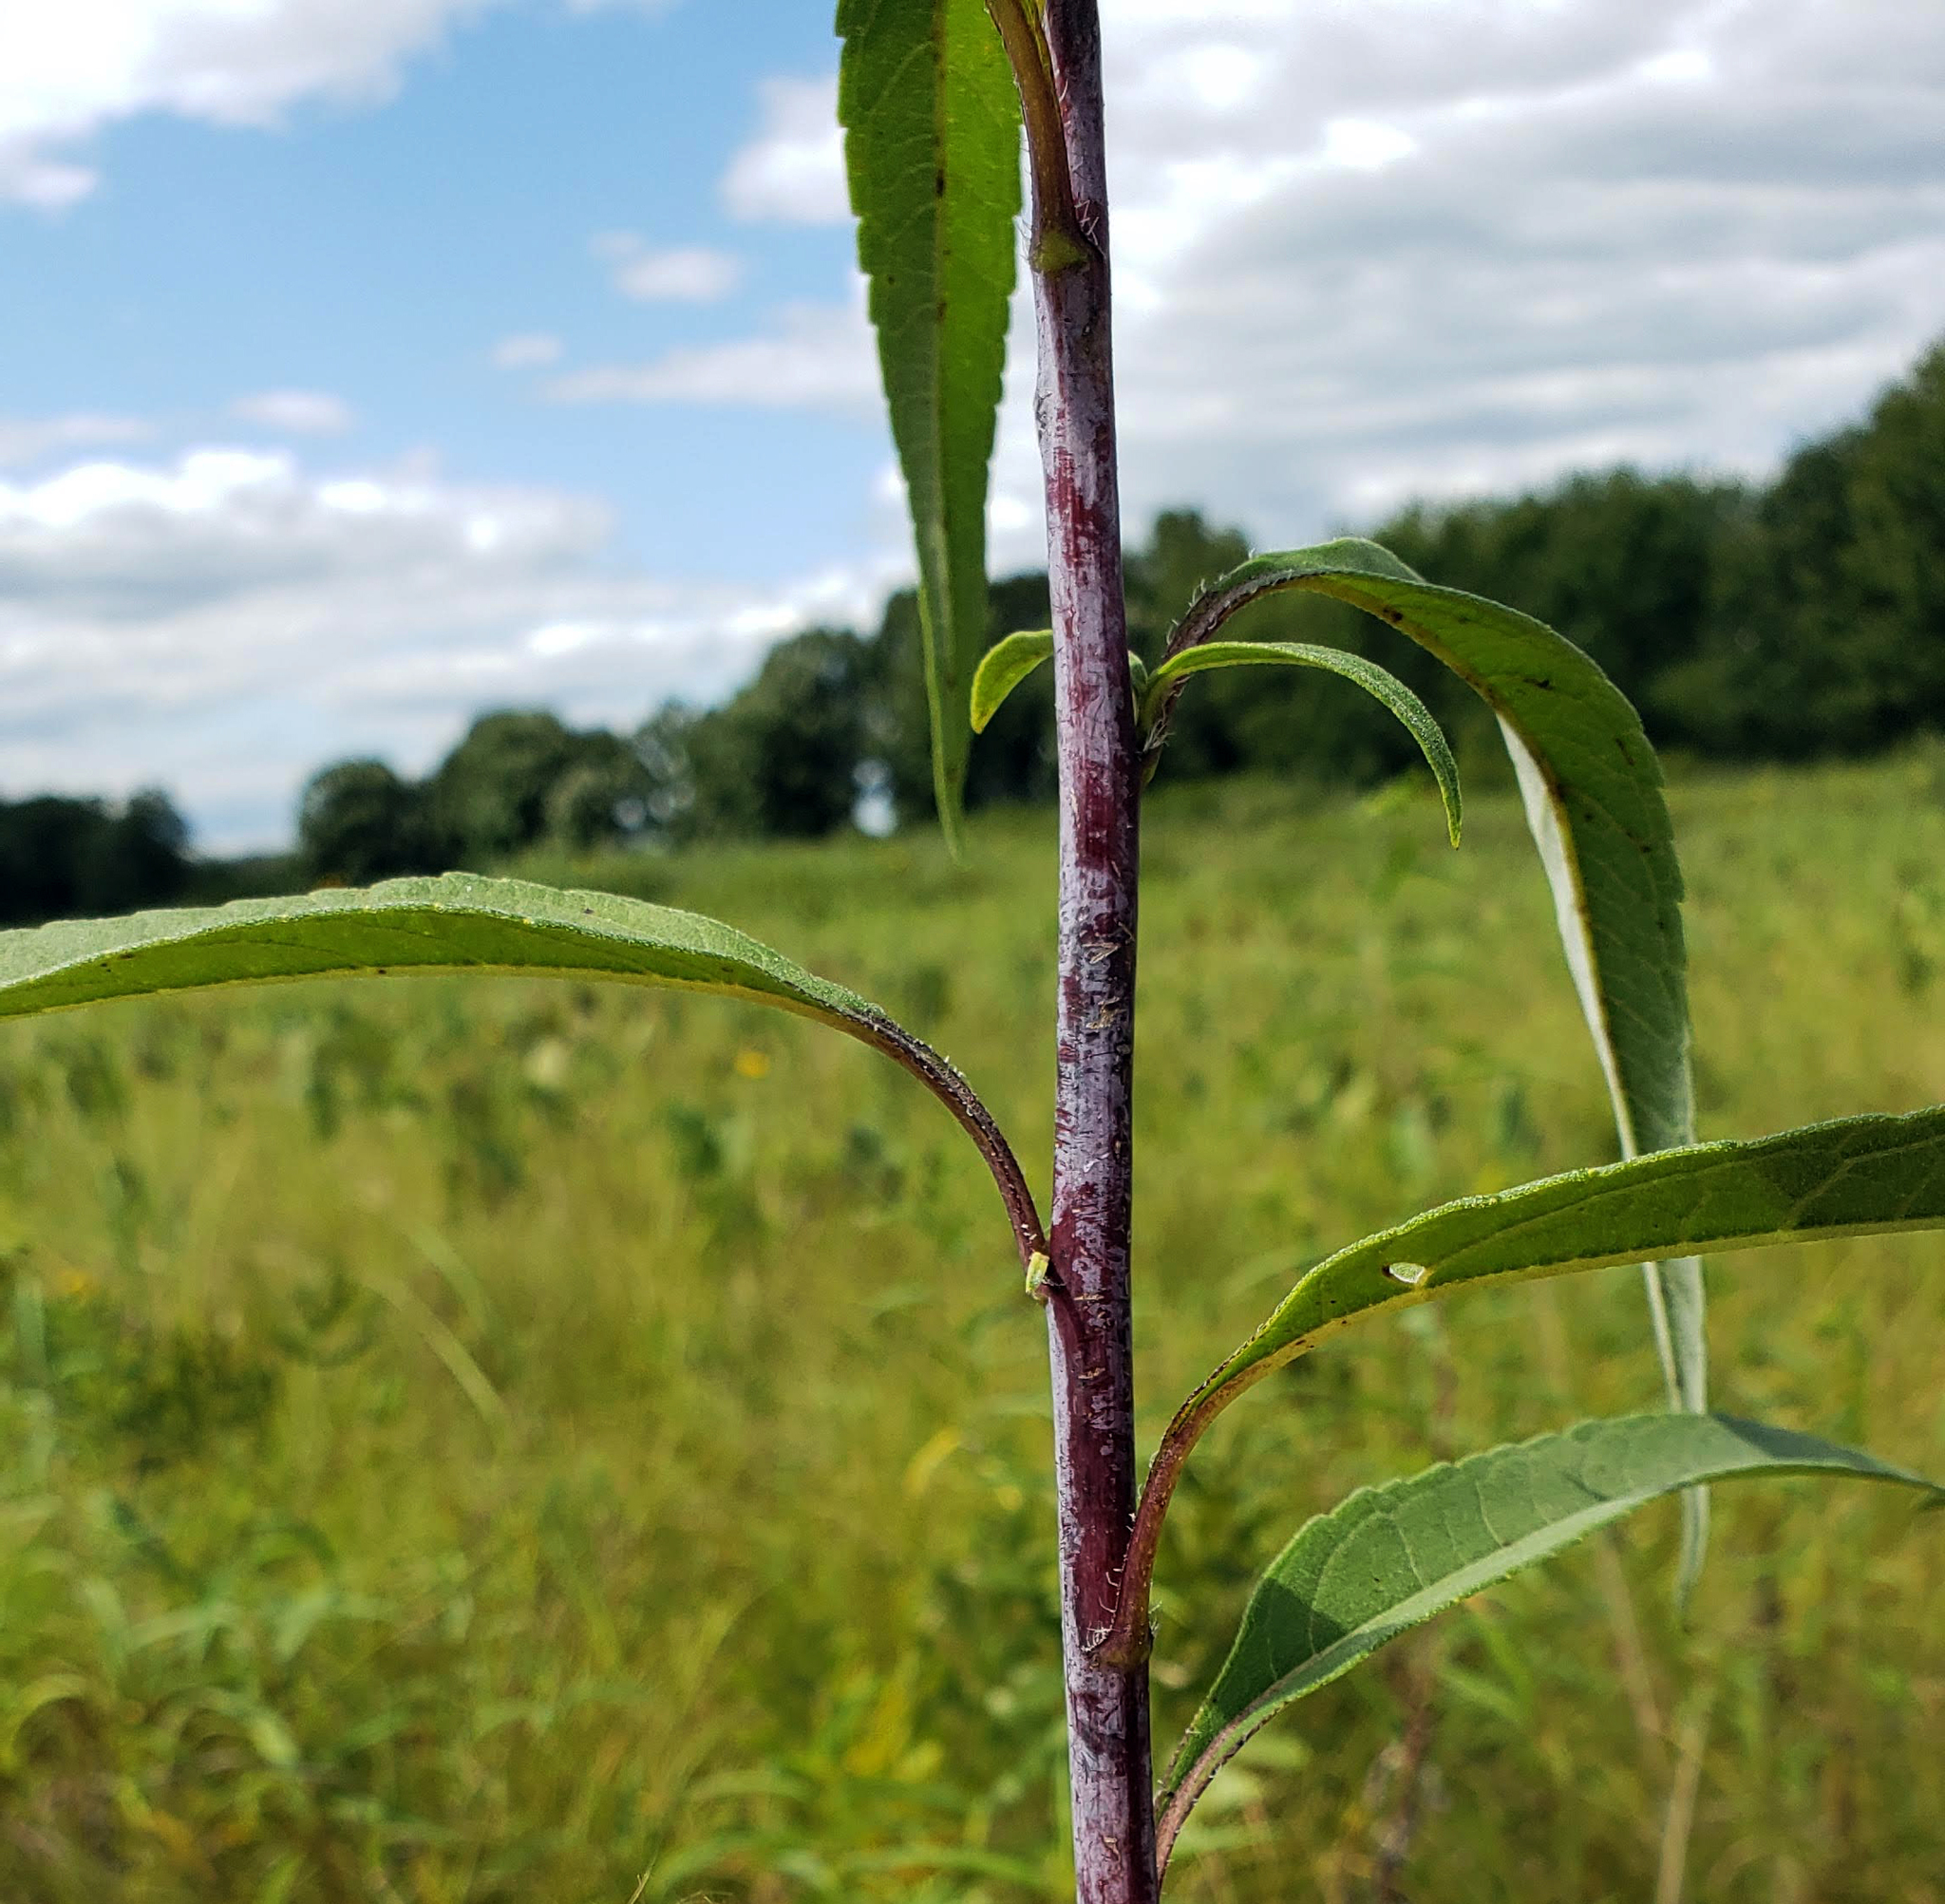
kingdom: Plantae
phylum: Tracheophyta
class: Magnoliopsida
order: Asterales
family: Asteraceae
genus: Helianthus
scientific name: Helianthus grosseserratus
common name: Sawtooth sunflower
